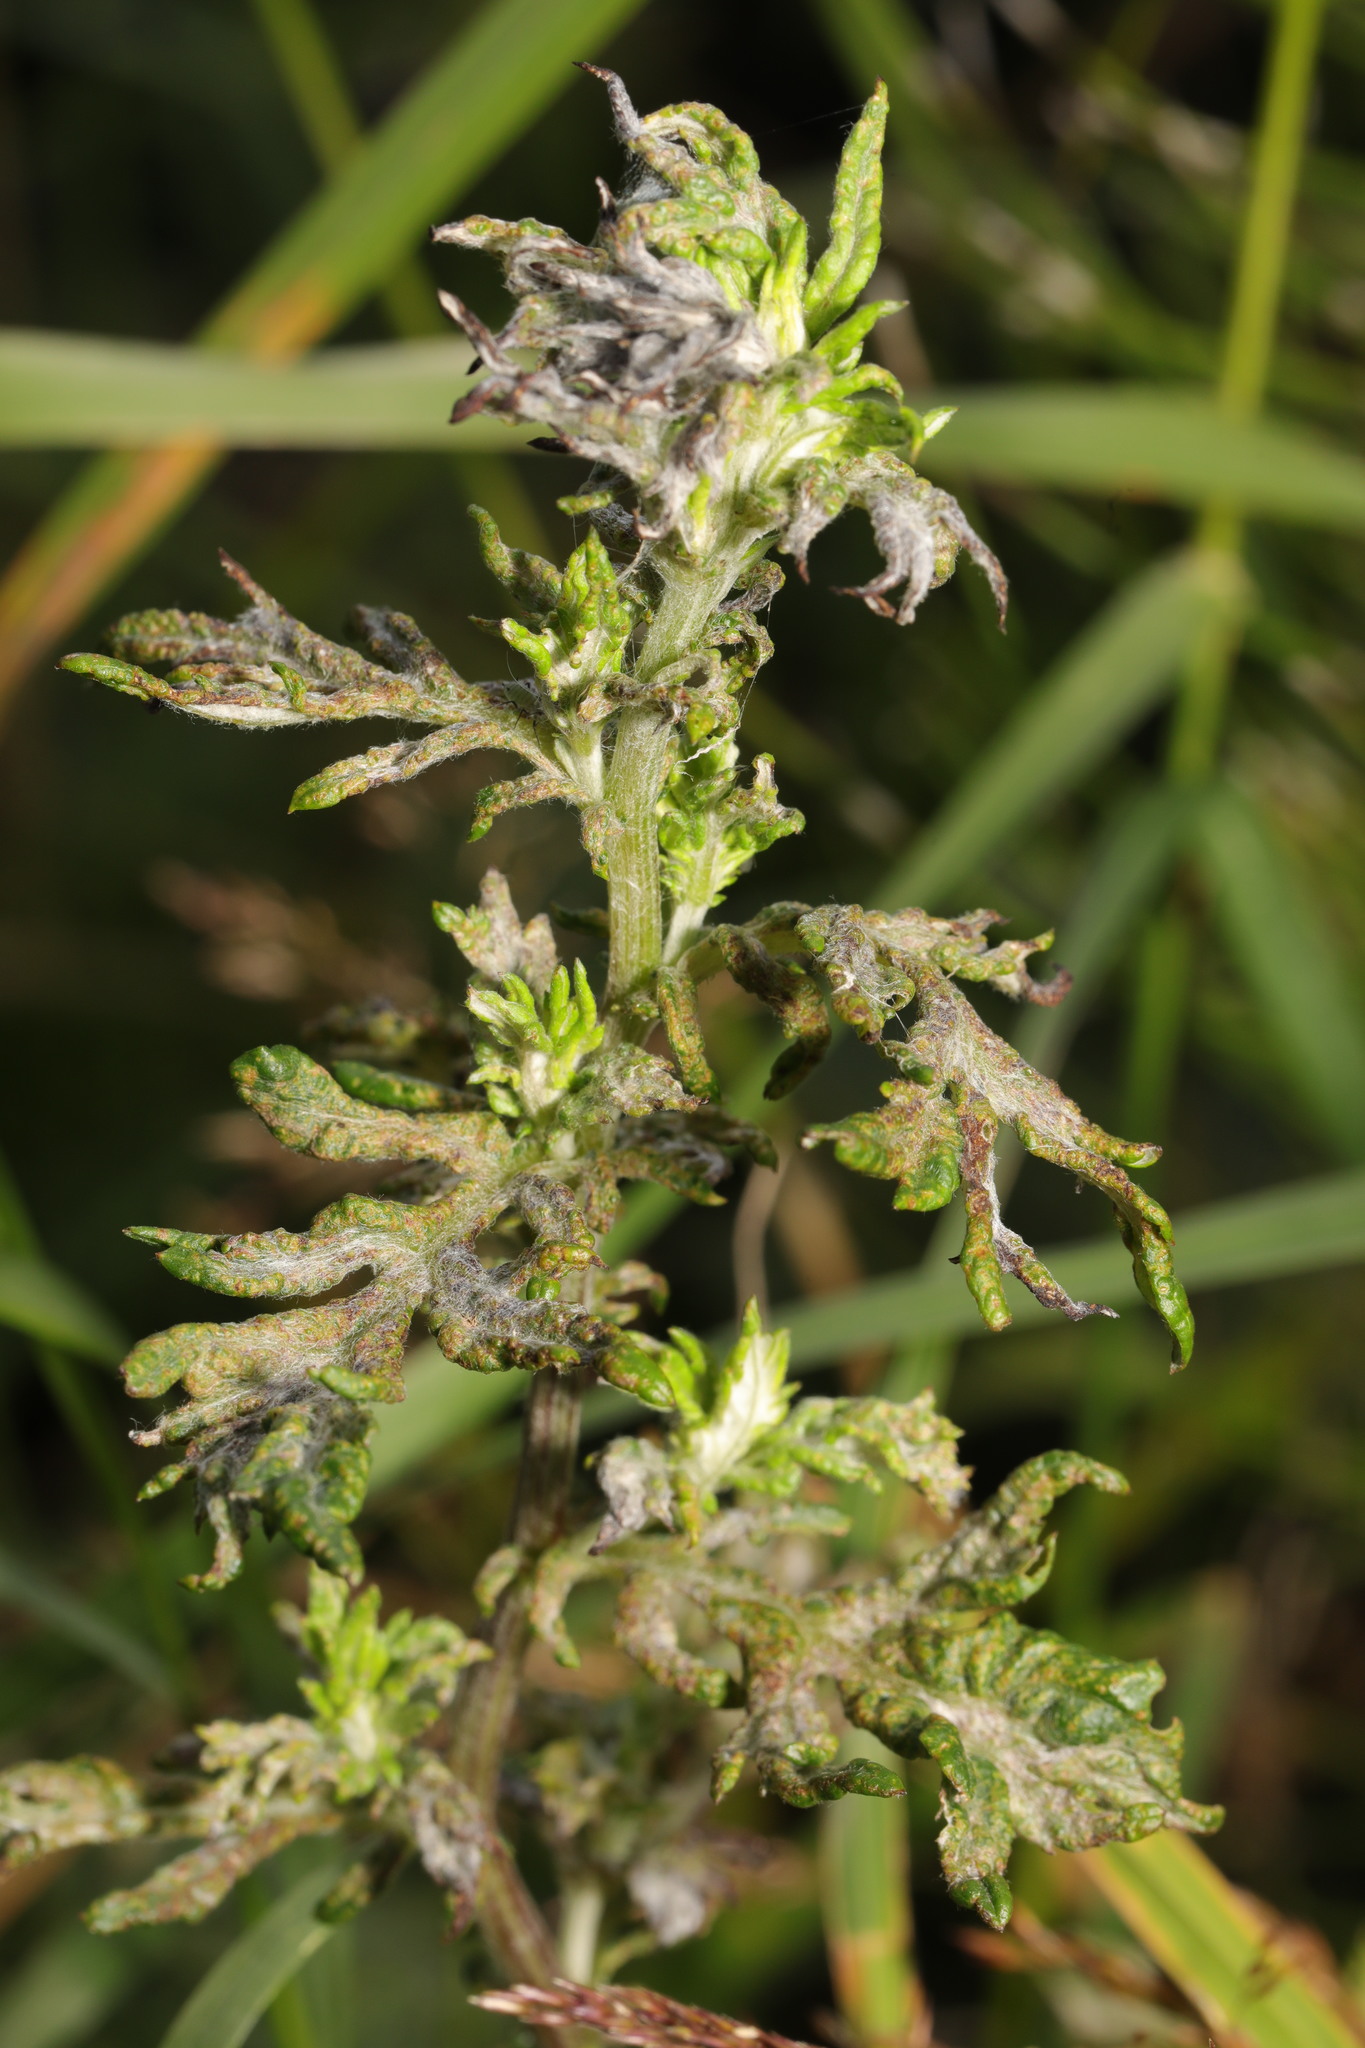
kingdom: Plantae
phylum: Tracheophyta
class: Magnoliopsida
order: Asterales
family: Asteraceae
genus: Artemisia
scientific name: Artemisia vulgaris
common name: Mugwort
